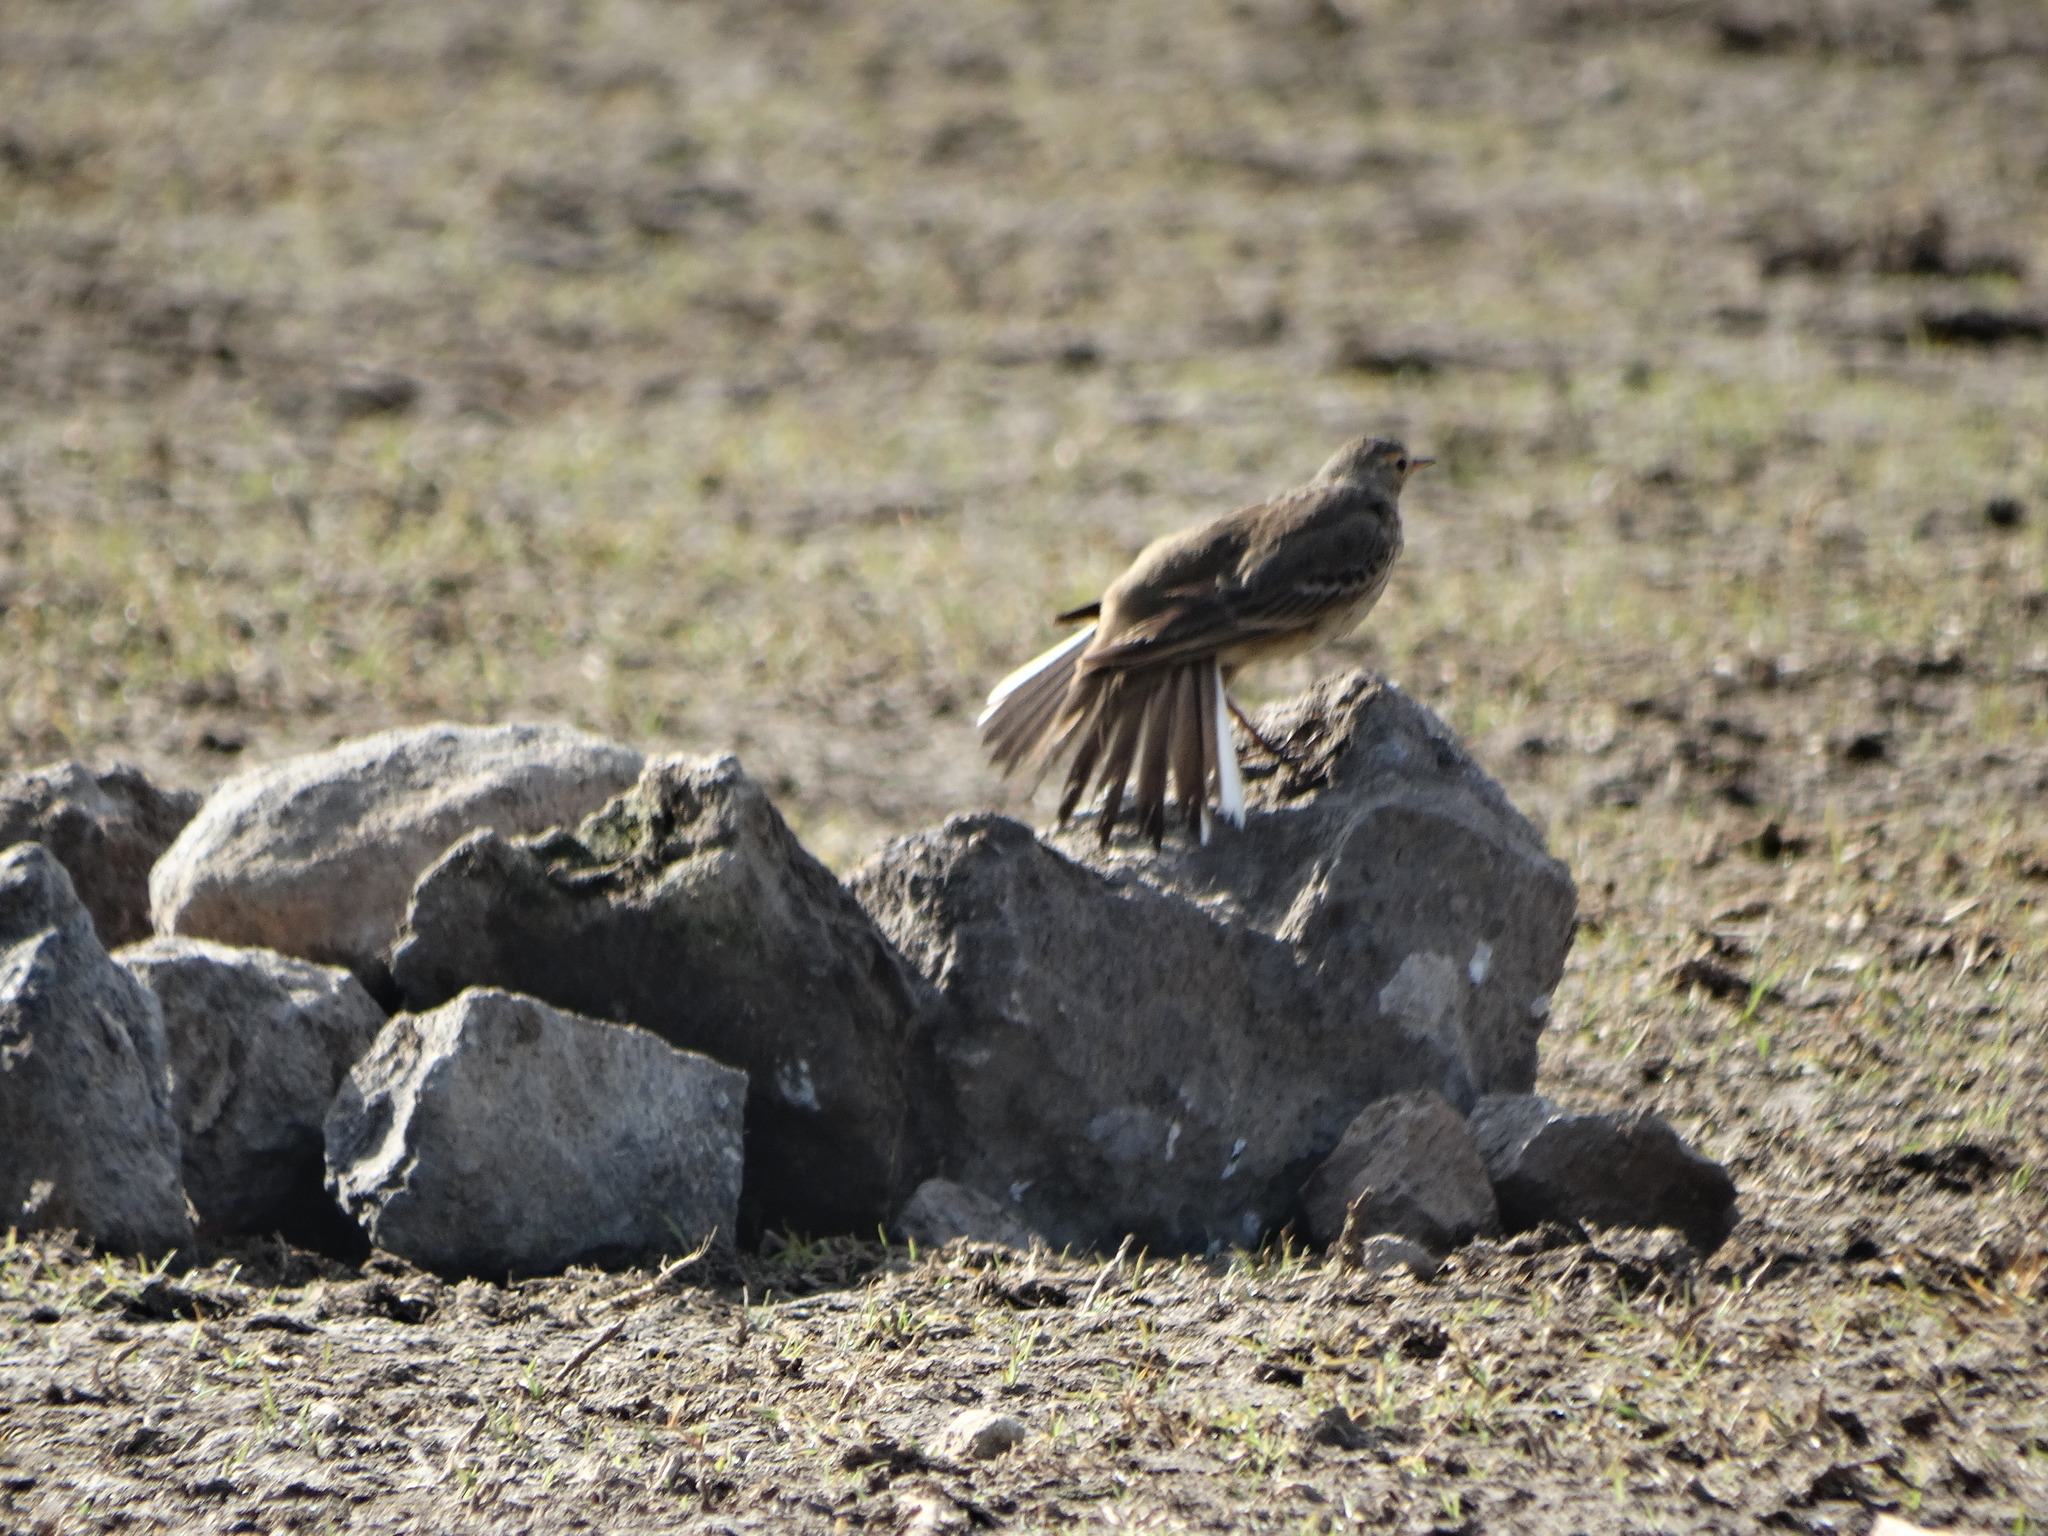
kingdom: Animalia
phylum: Chordata
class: Aves
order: Passeriformes
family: Motacillidae
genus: Anthus
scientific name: Anthus rubescens
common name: Buff-bellied pipit
